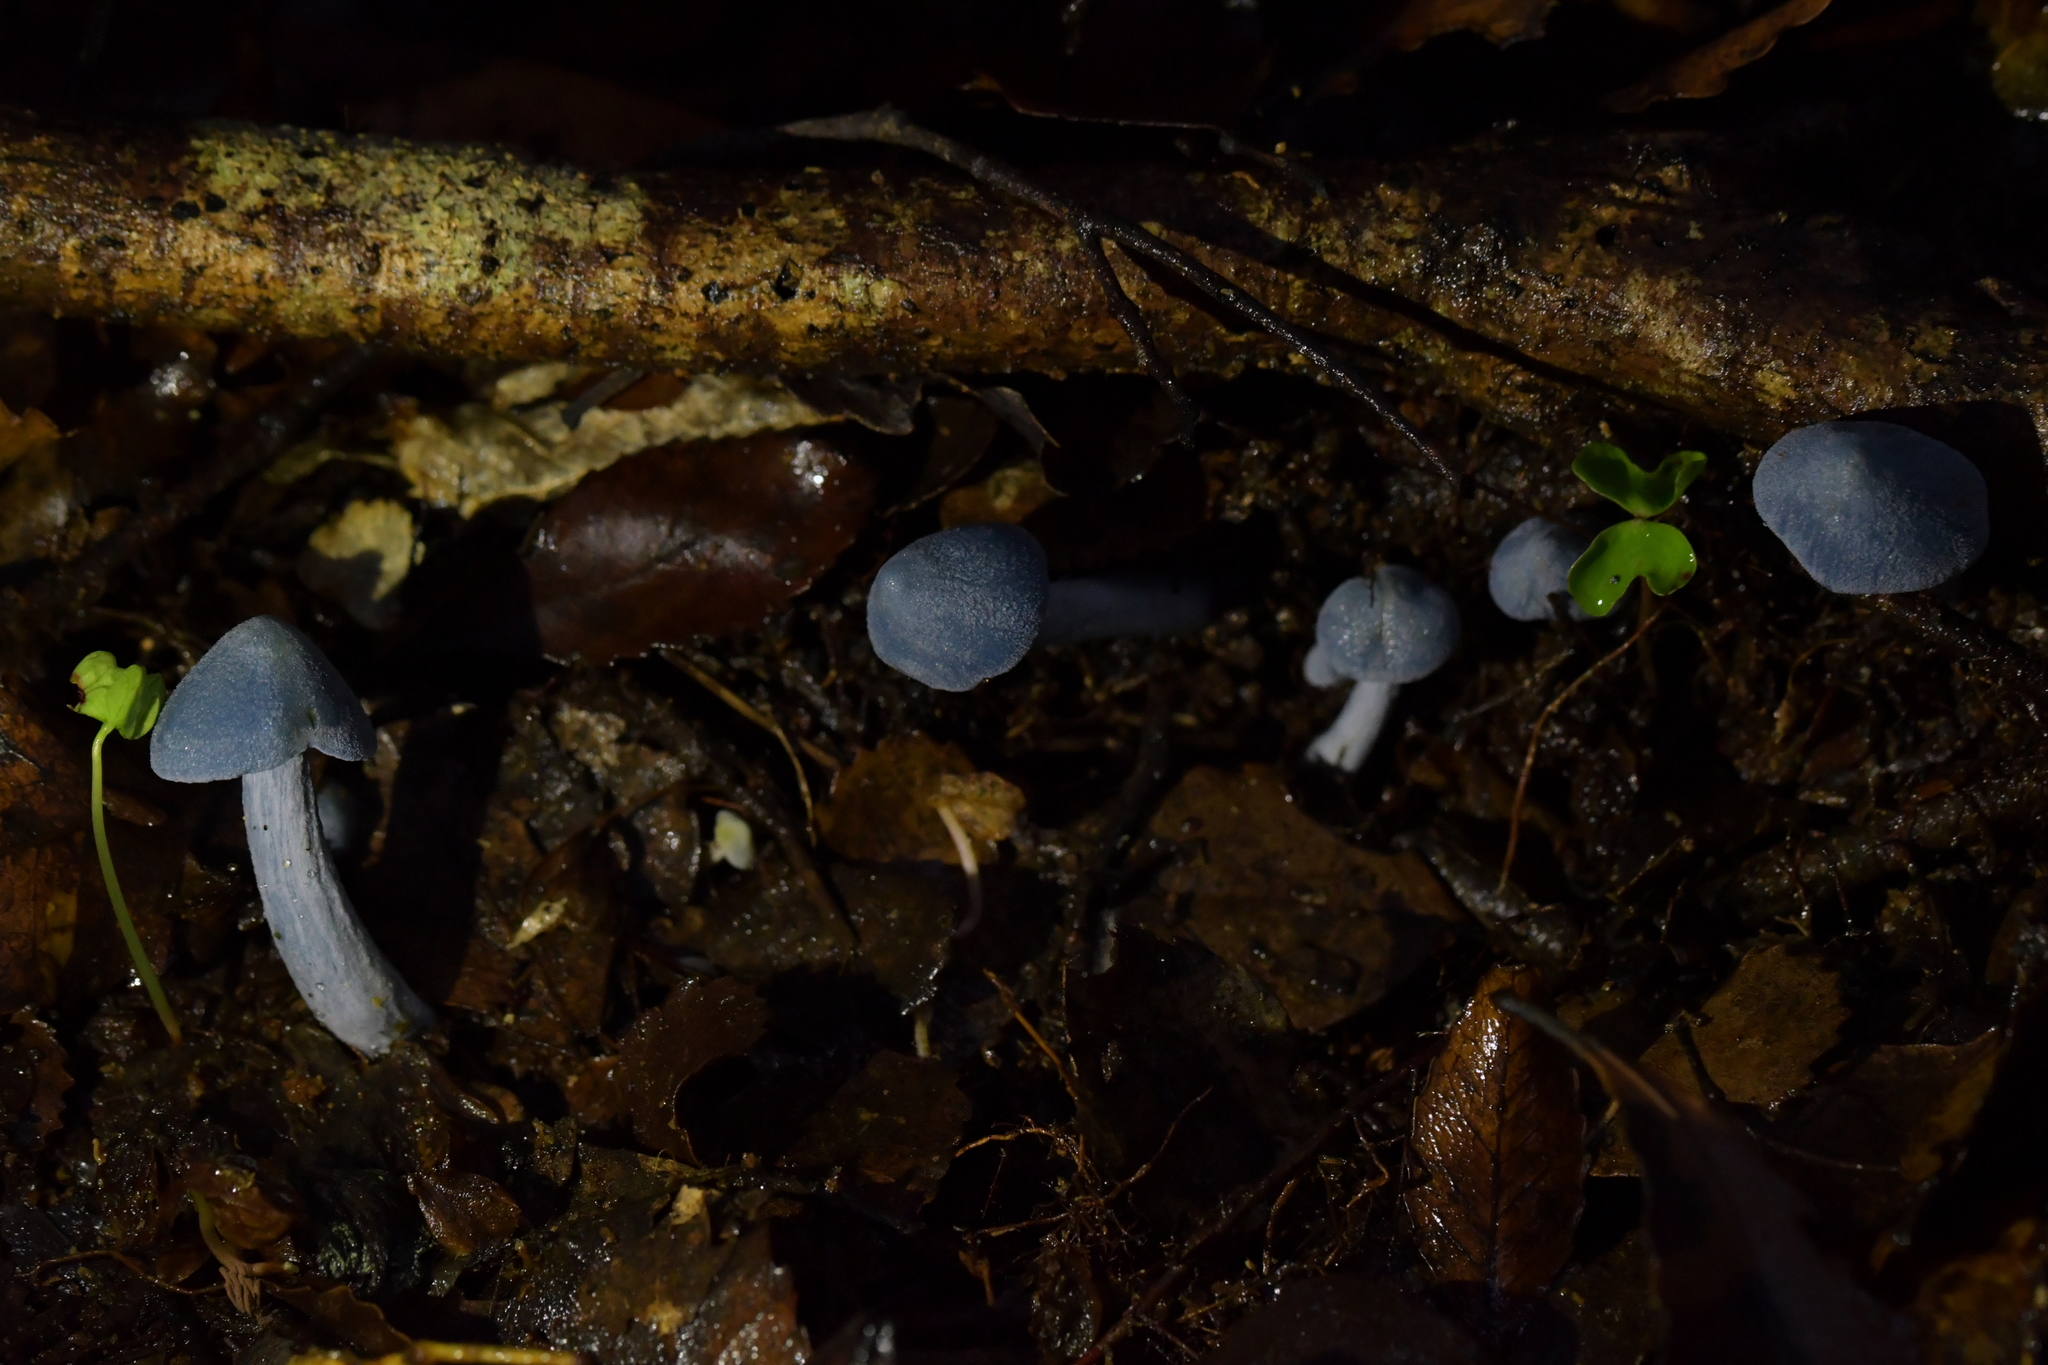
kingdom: Fungi
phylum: Basidiomycota
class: Agaricomycetes
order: Agaricales
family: Entolomataceae
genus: Entoloma
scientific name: Entoloma hochstetteri
